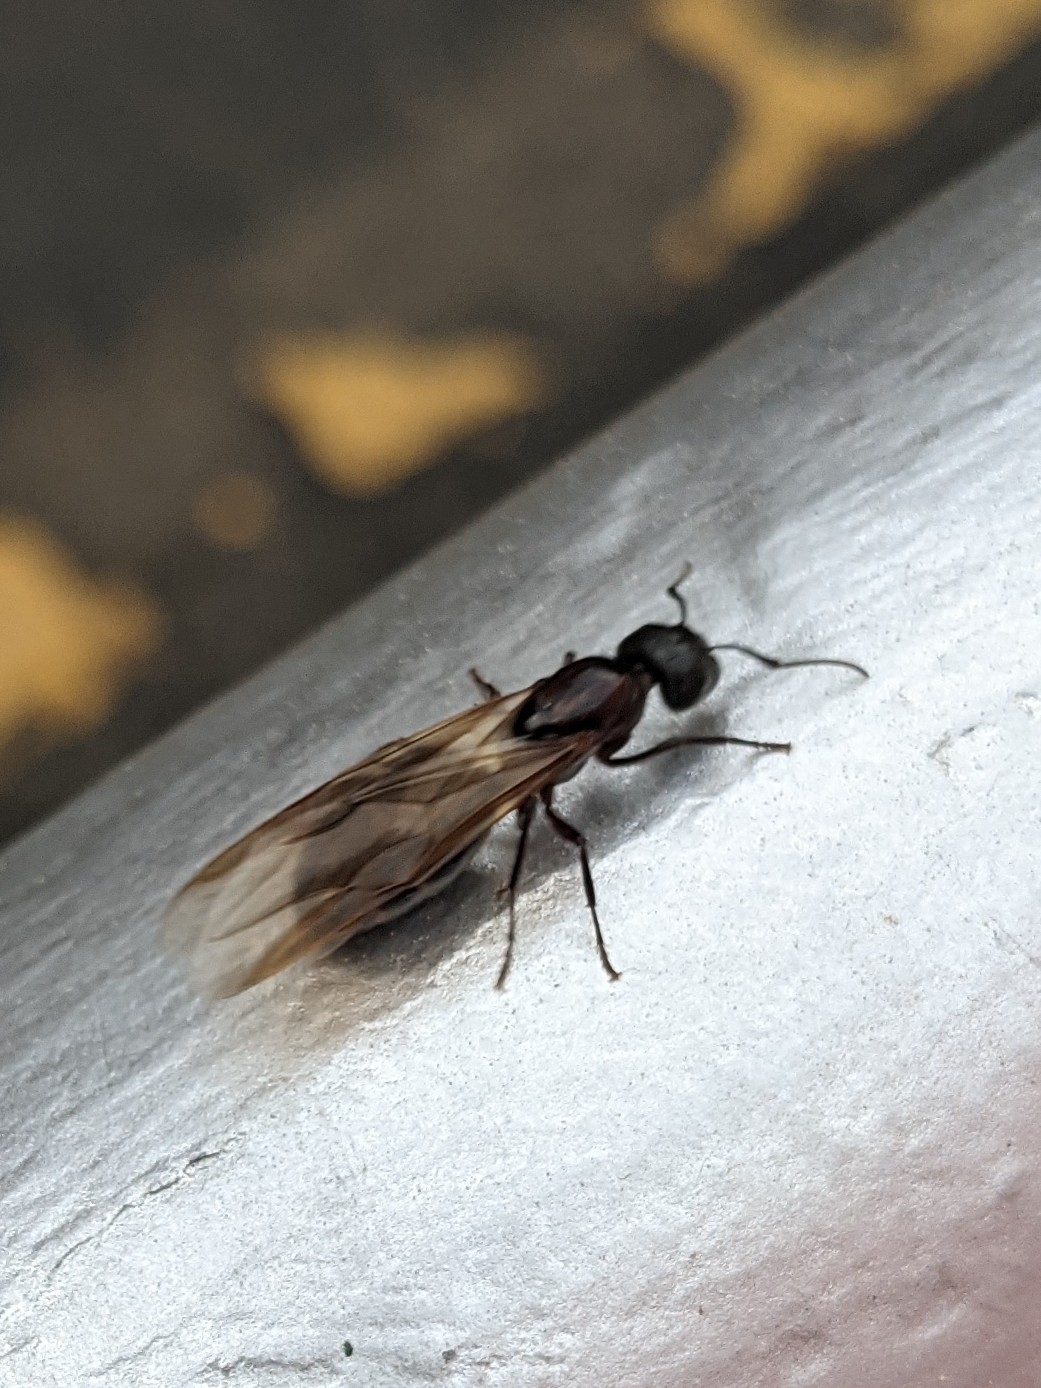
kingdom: Animalia
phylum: Arthropoda
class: Insecta
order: Hymenoptera
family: Formicidae
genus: Camponotus
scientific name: Camponotus pennsylvanicus
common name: Black carpenter ant
